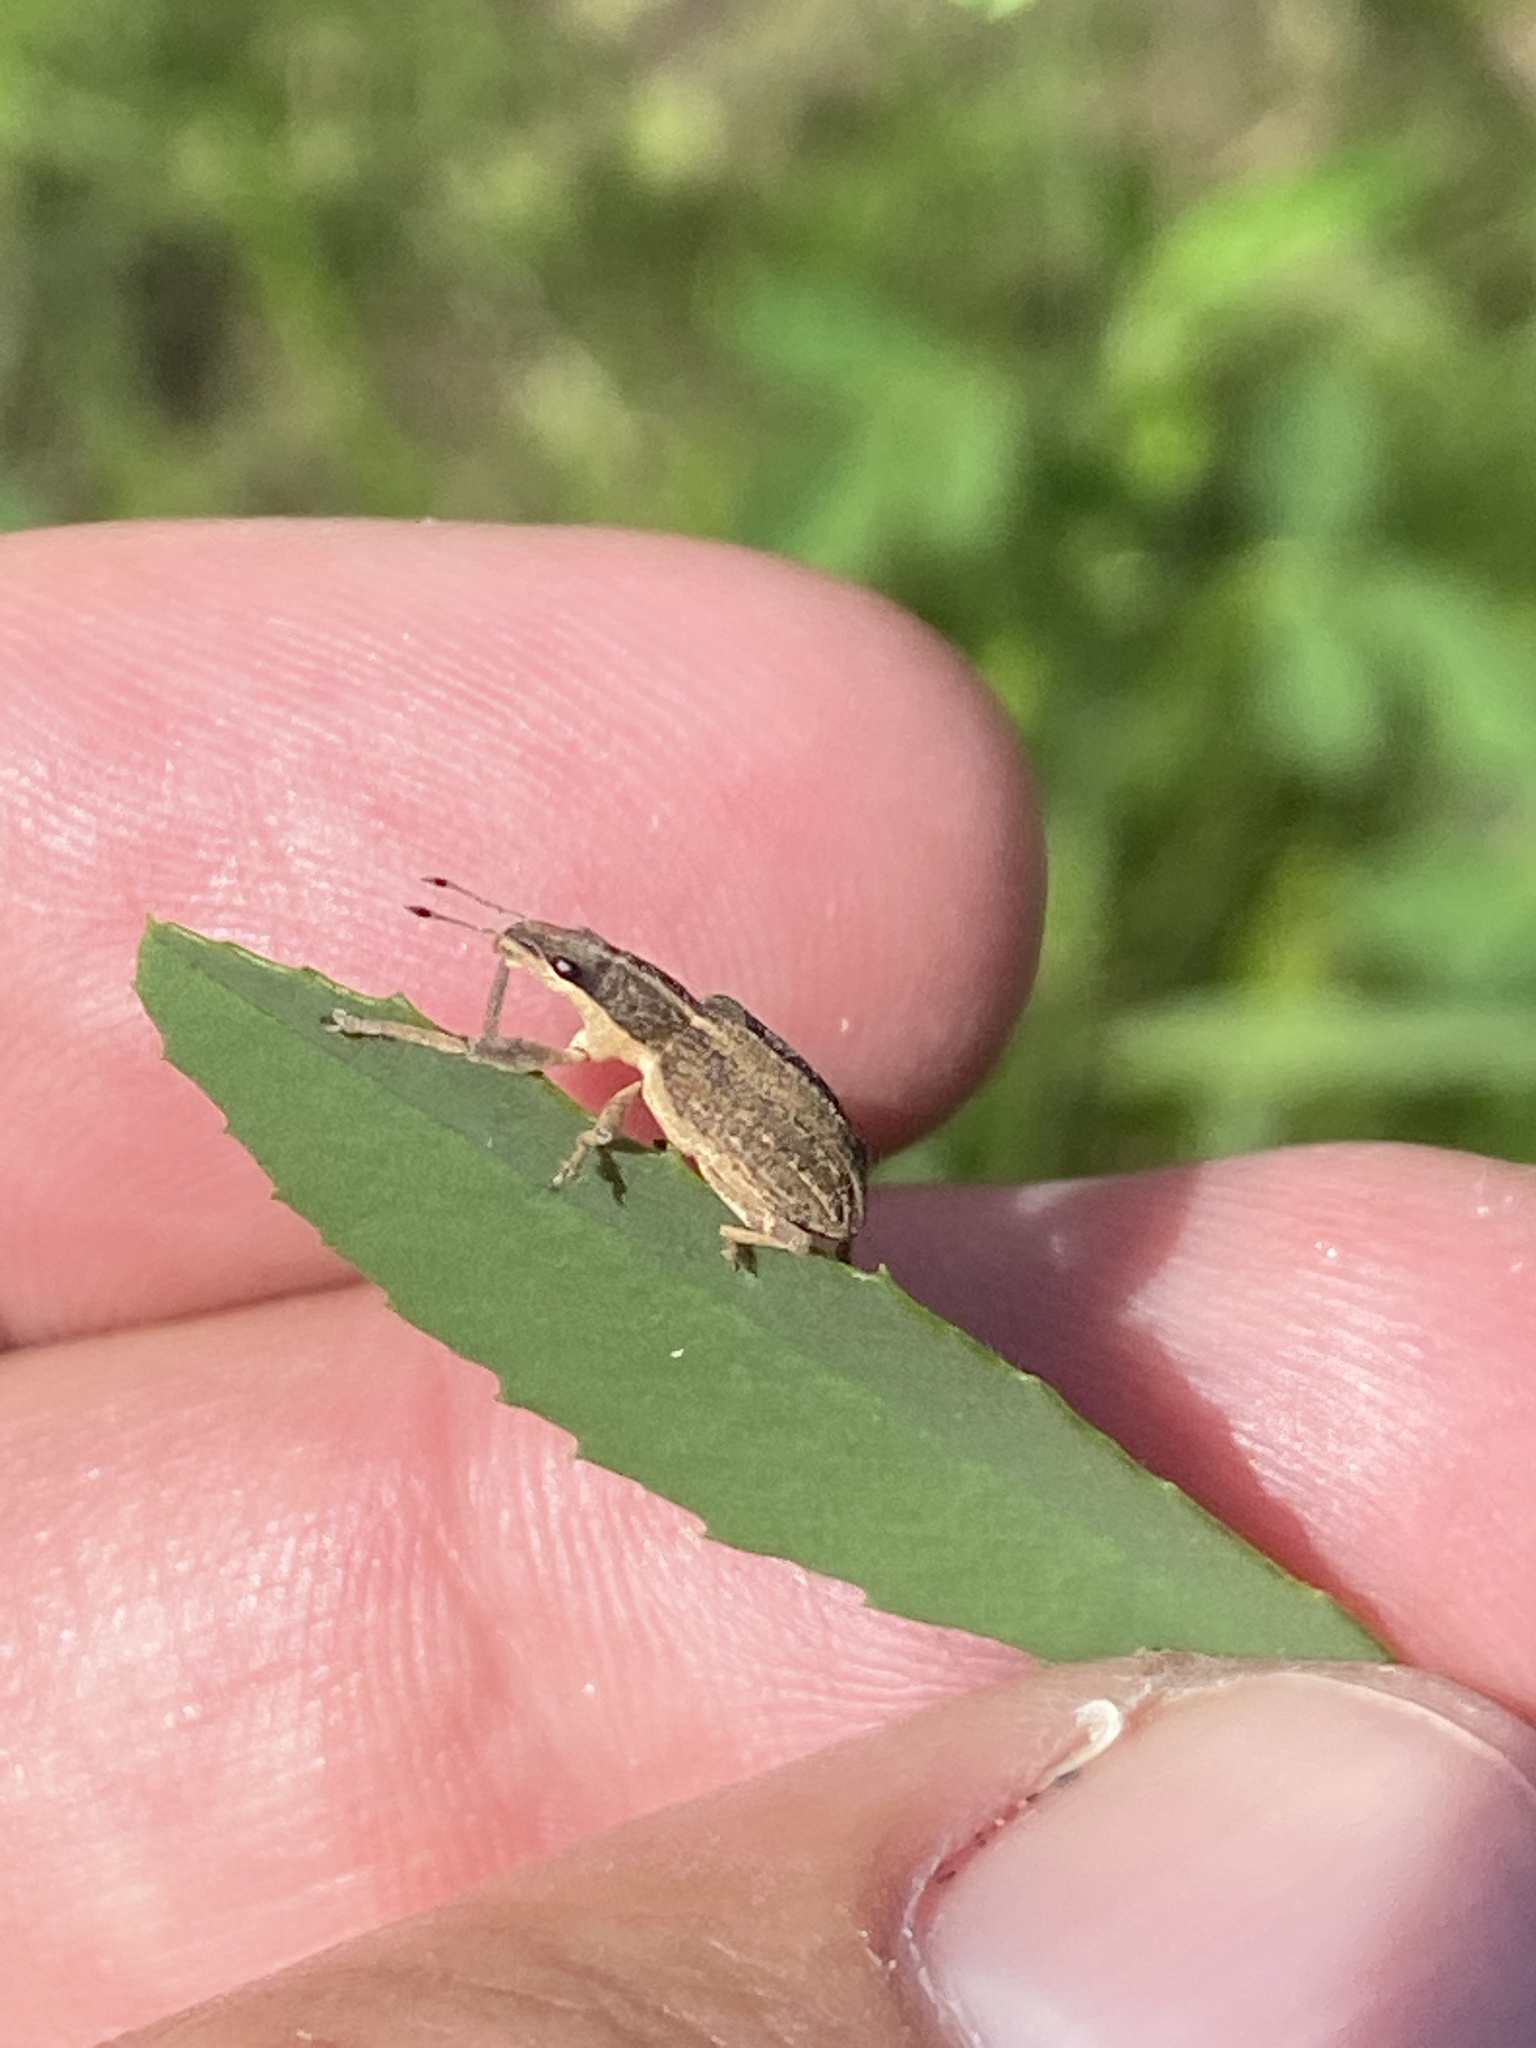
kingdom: Animalia
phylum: Arthropoda
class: Insecta
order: Coleoptera
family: Curculionidae
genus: Charagmus
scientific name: Charagmus gressorius
